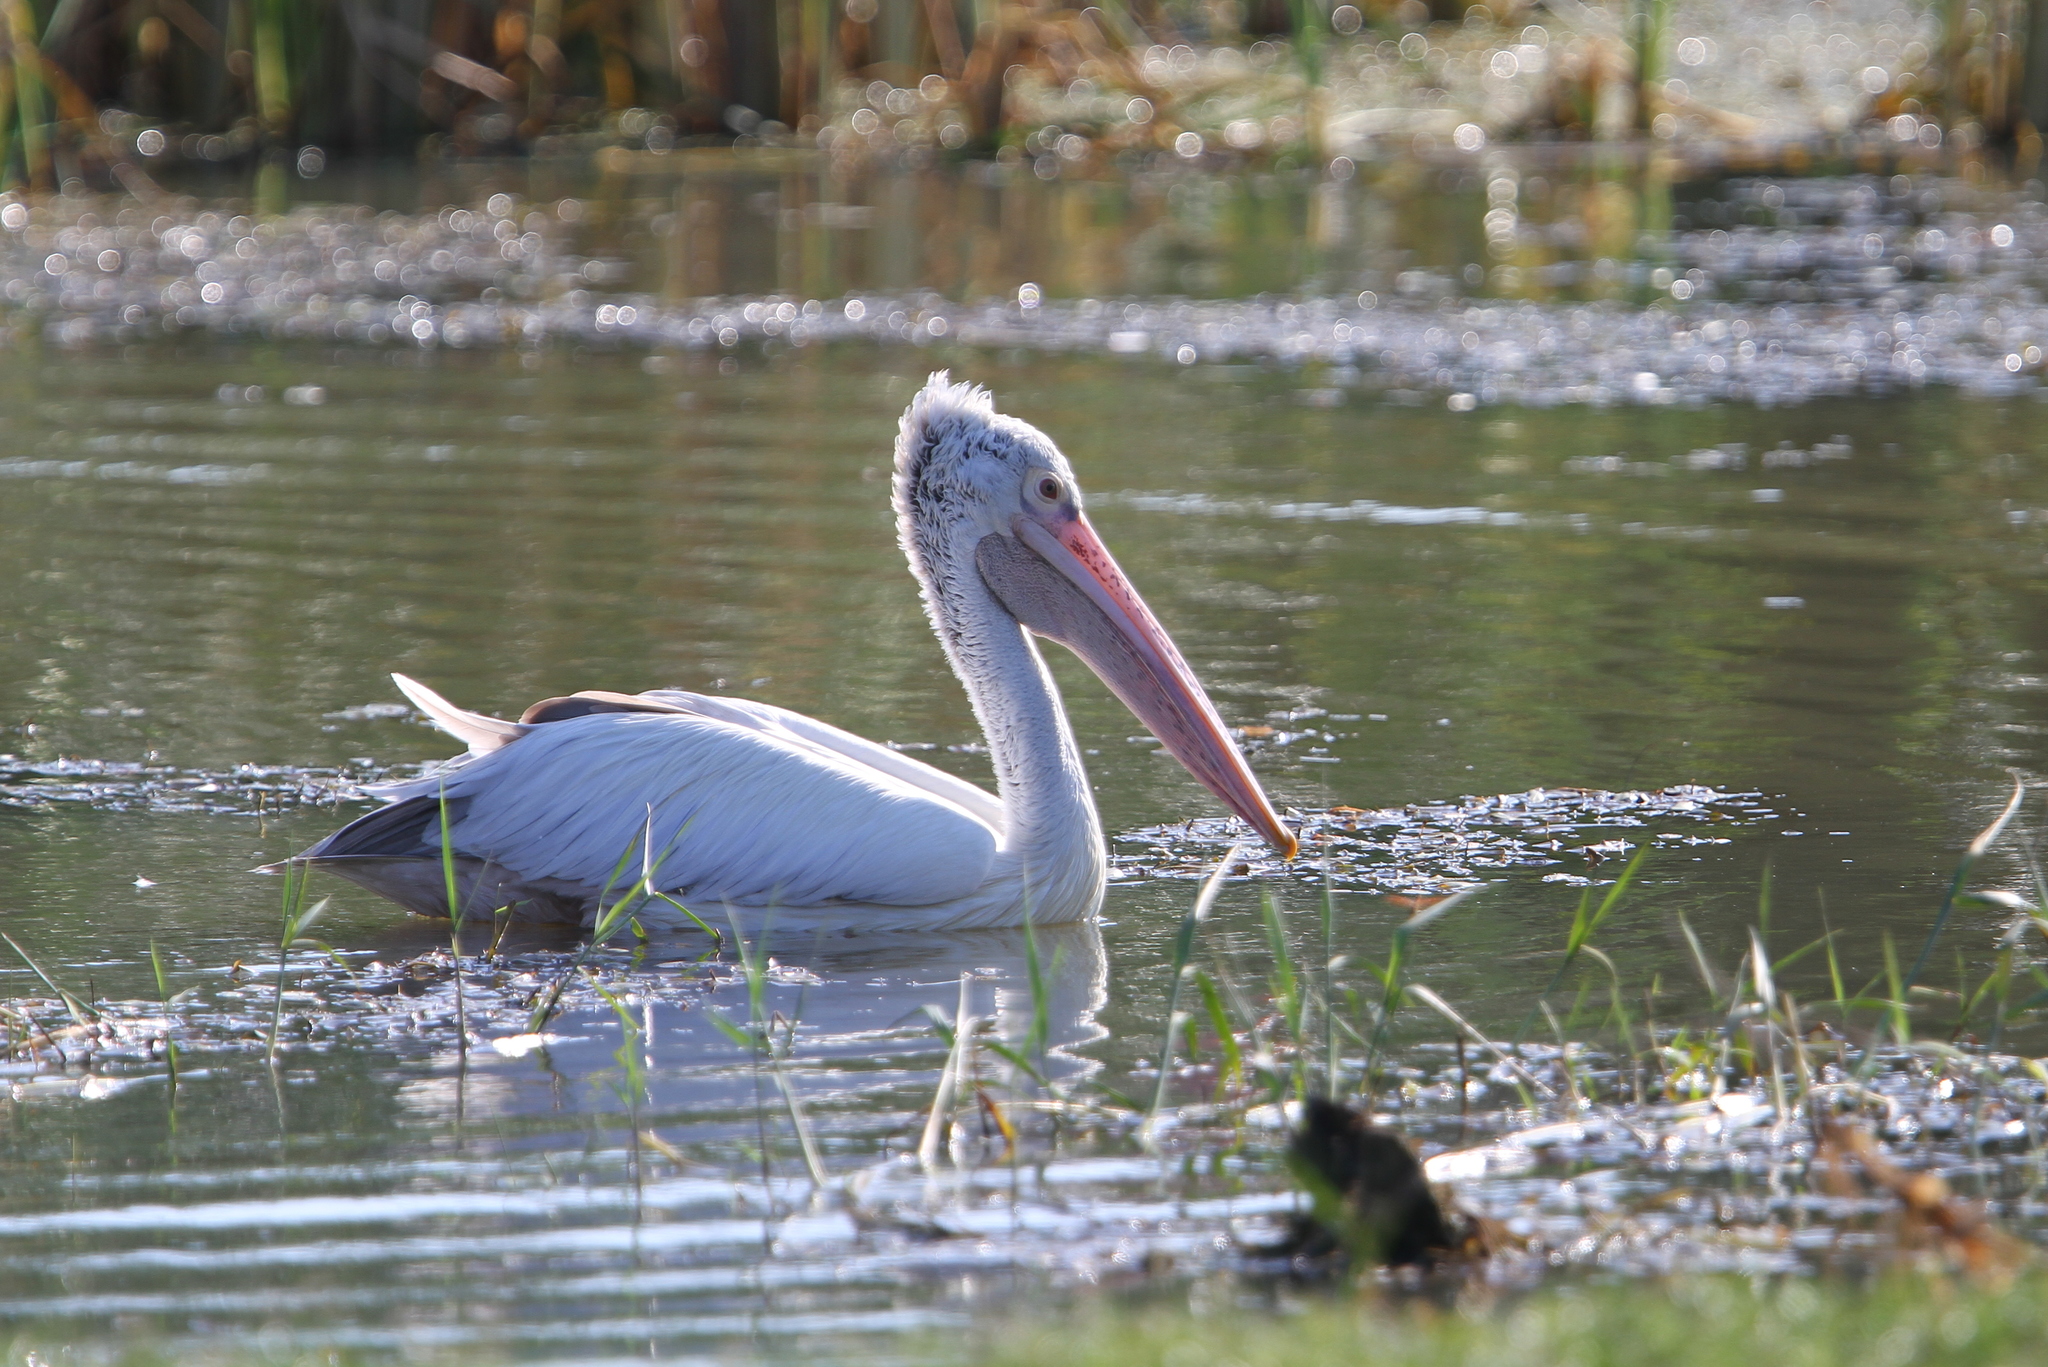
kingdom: Animalia
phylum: Chordata
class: Aves
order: Pelecaniformes
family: Pelecanidae
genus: Pelecanus
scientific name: Pelecanus philippensis
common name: Spot-billed pelican
